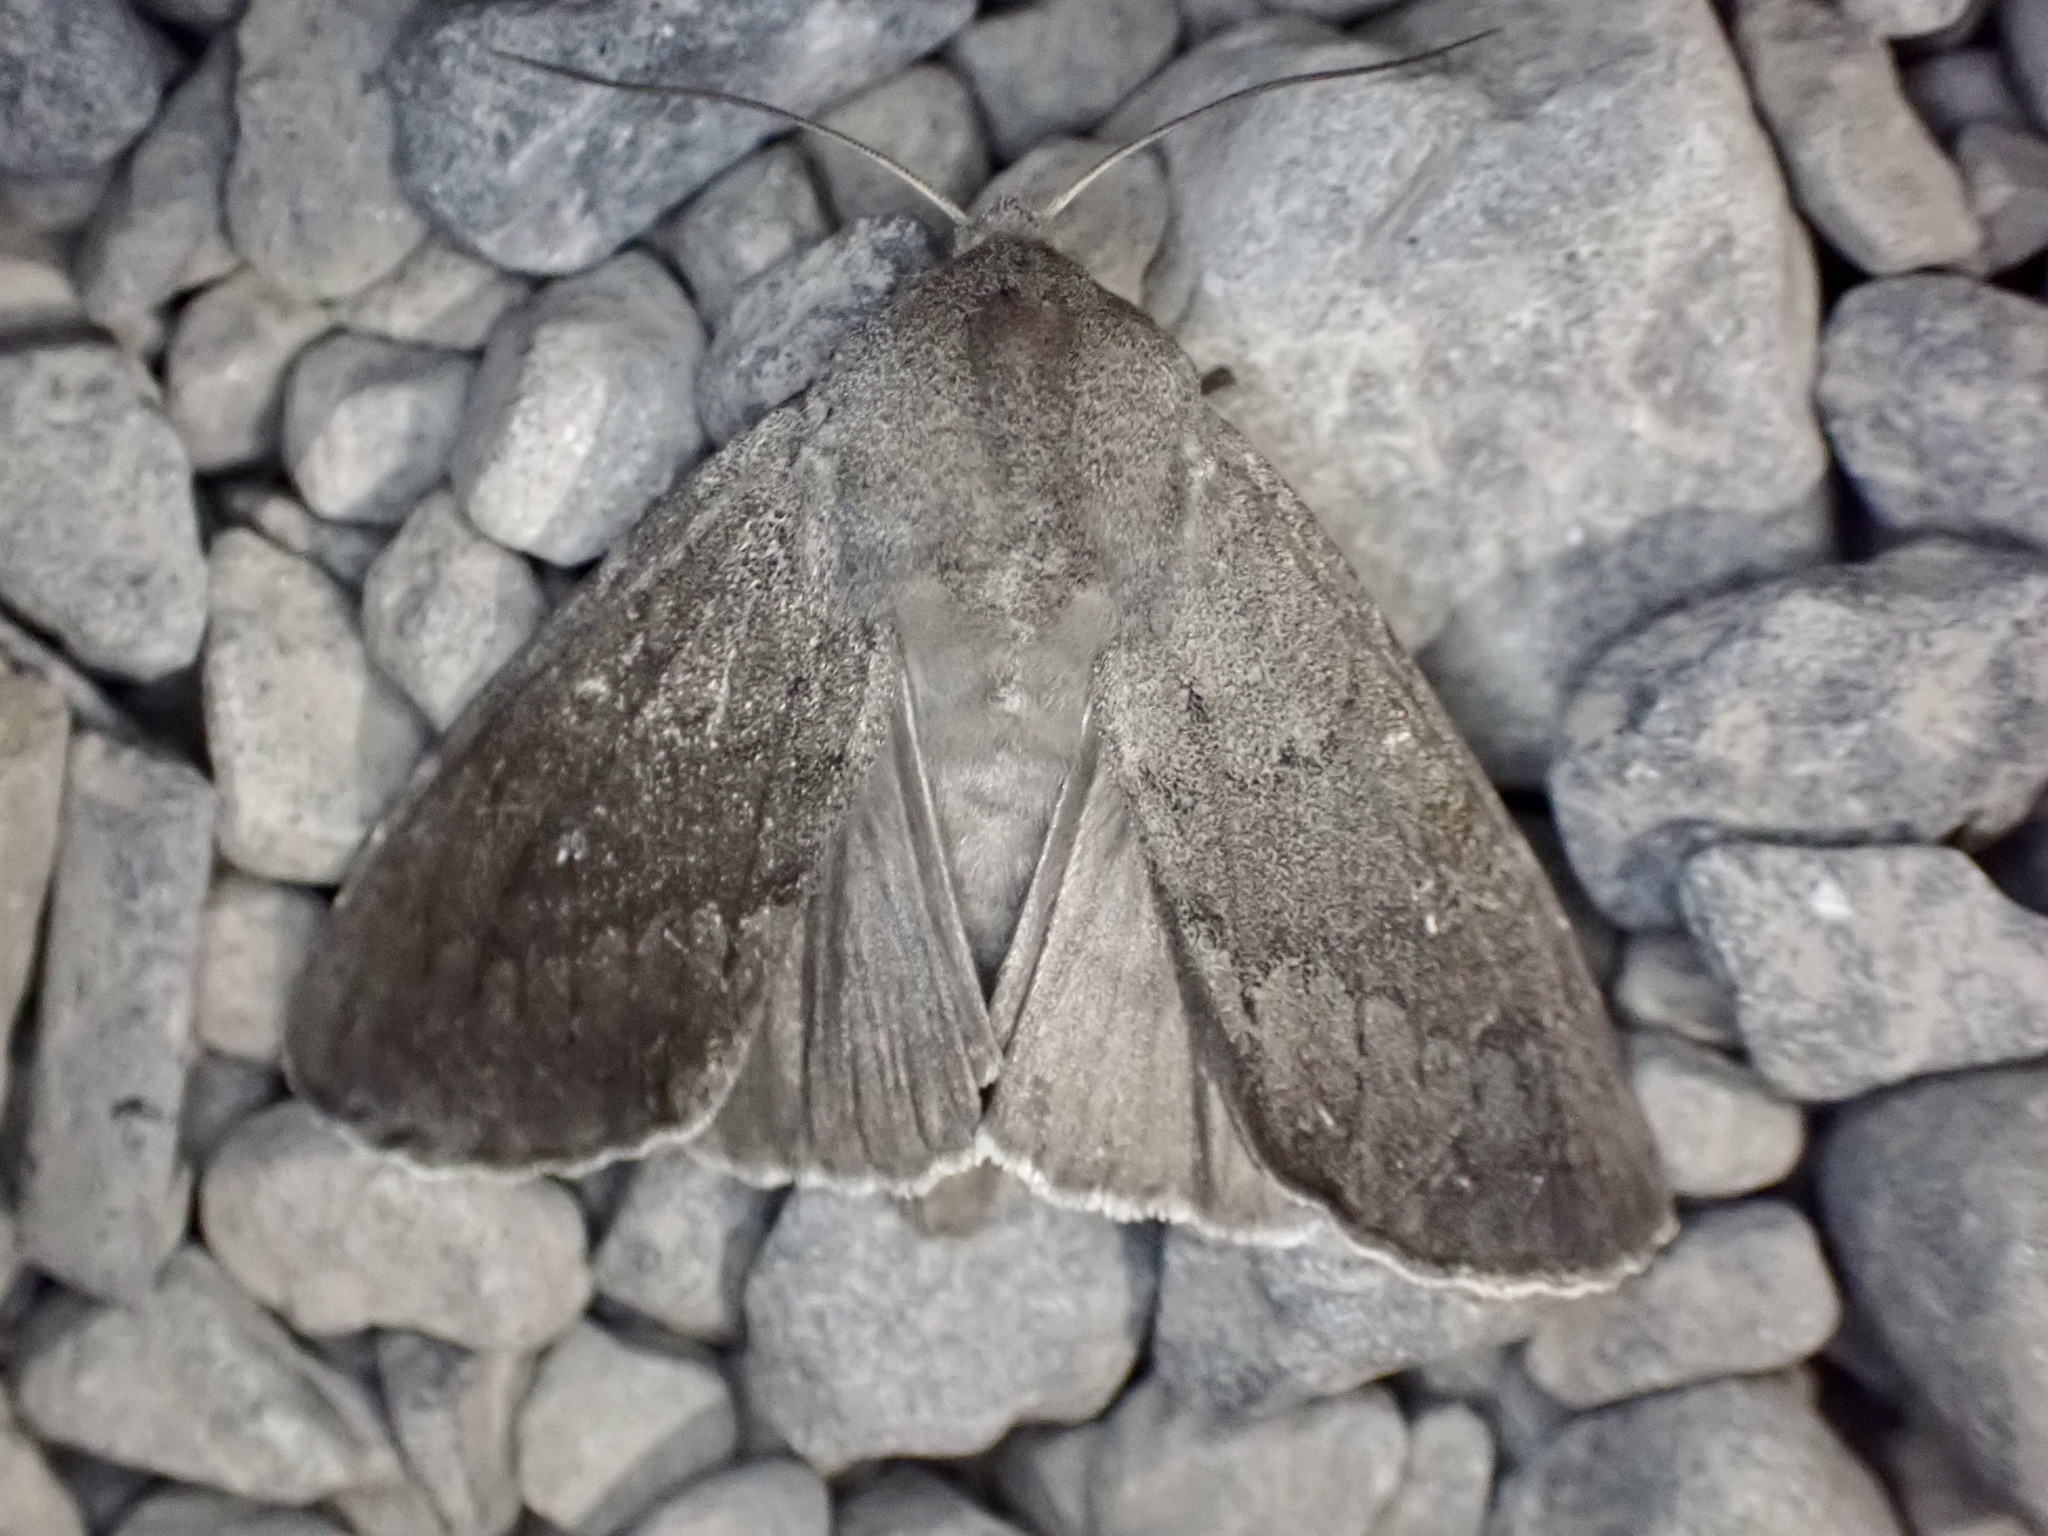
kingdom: Animalia
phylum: Arthropoda
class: Insecta
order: Lepidoptera
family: Noctuidae
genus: Ichneutica
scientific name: Ichneutica nullifera
